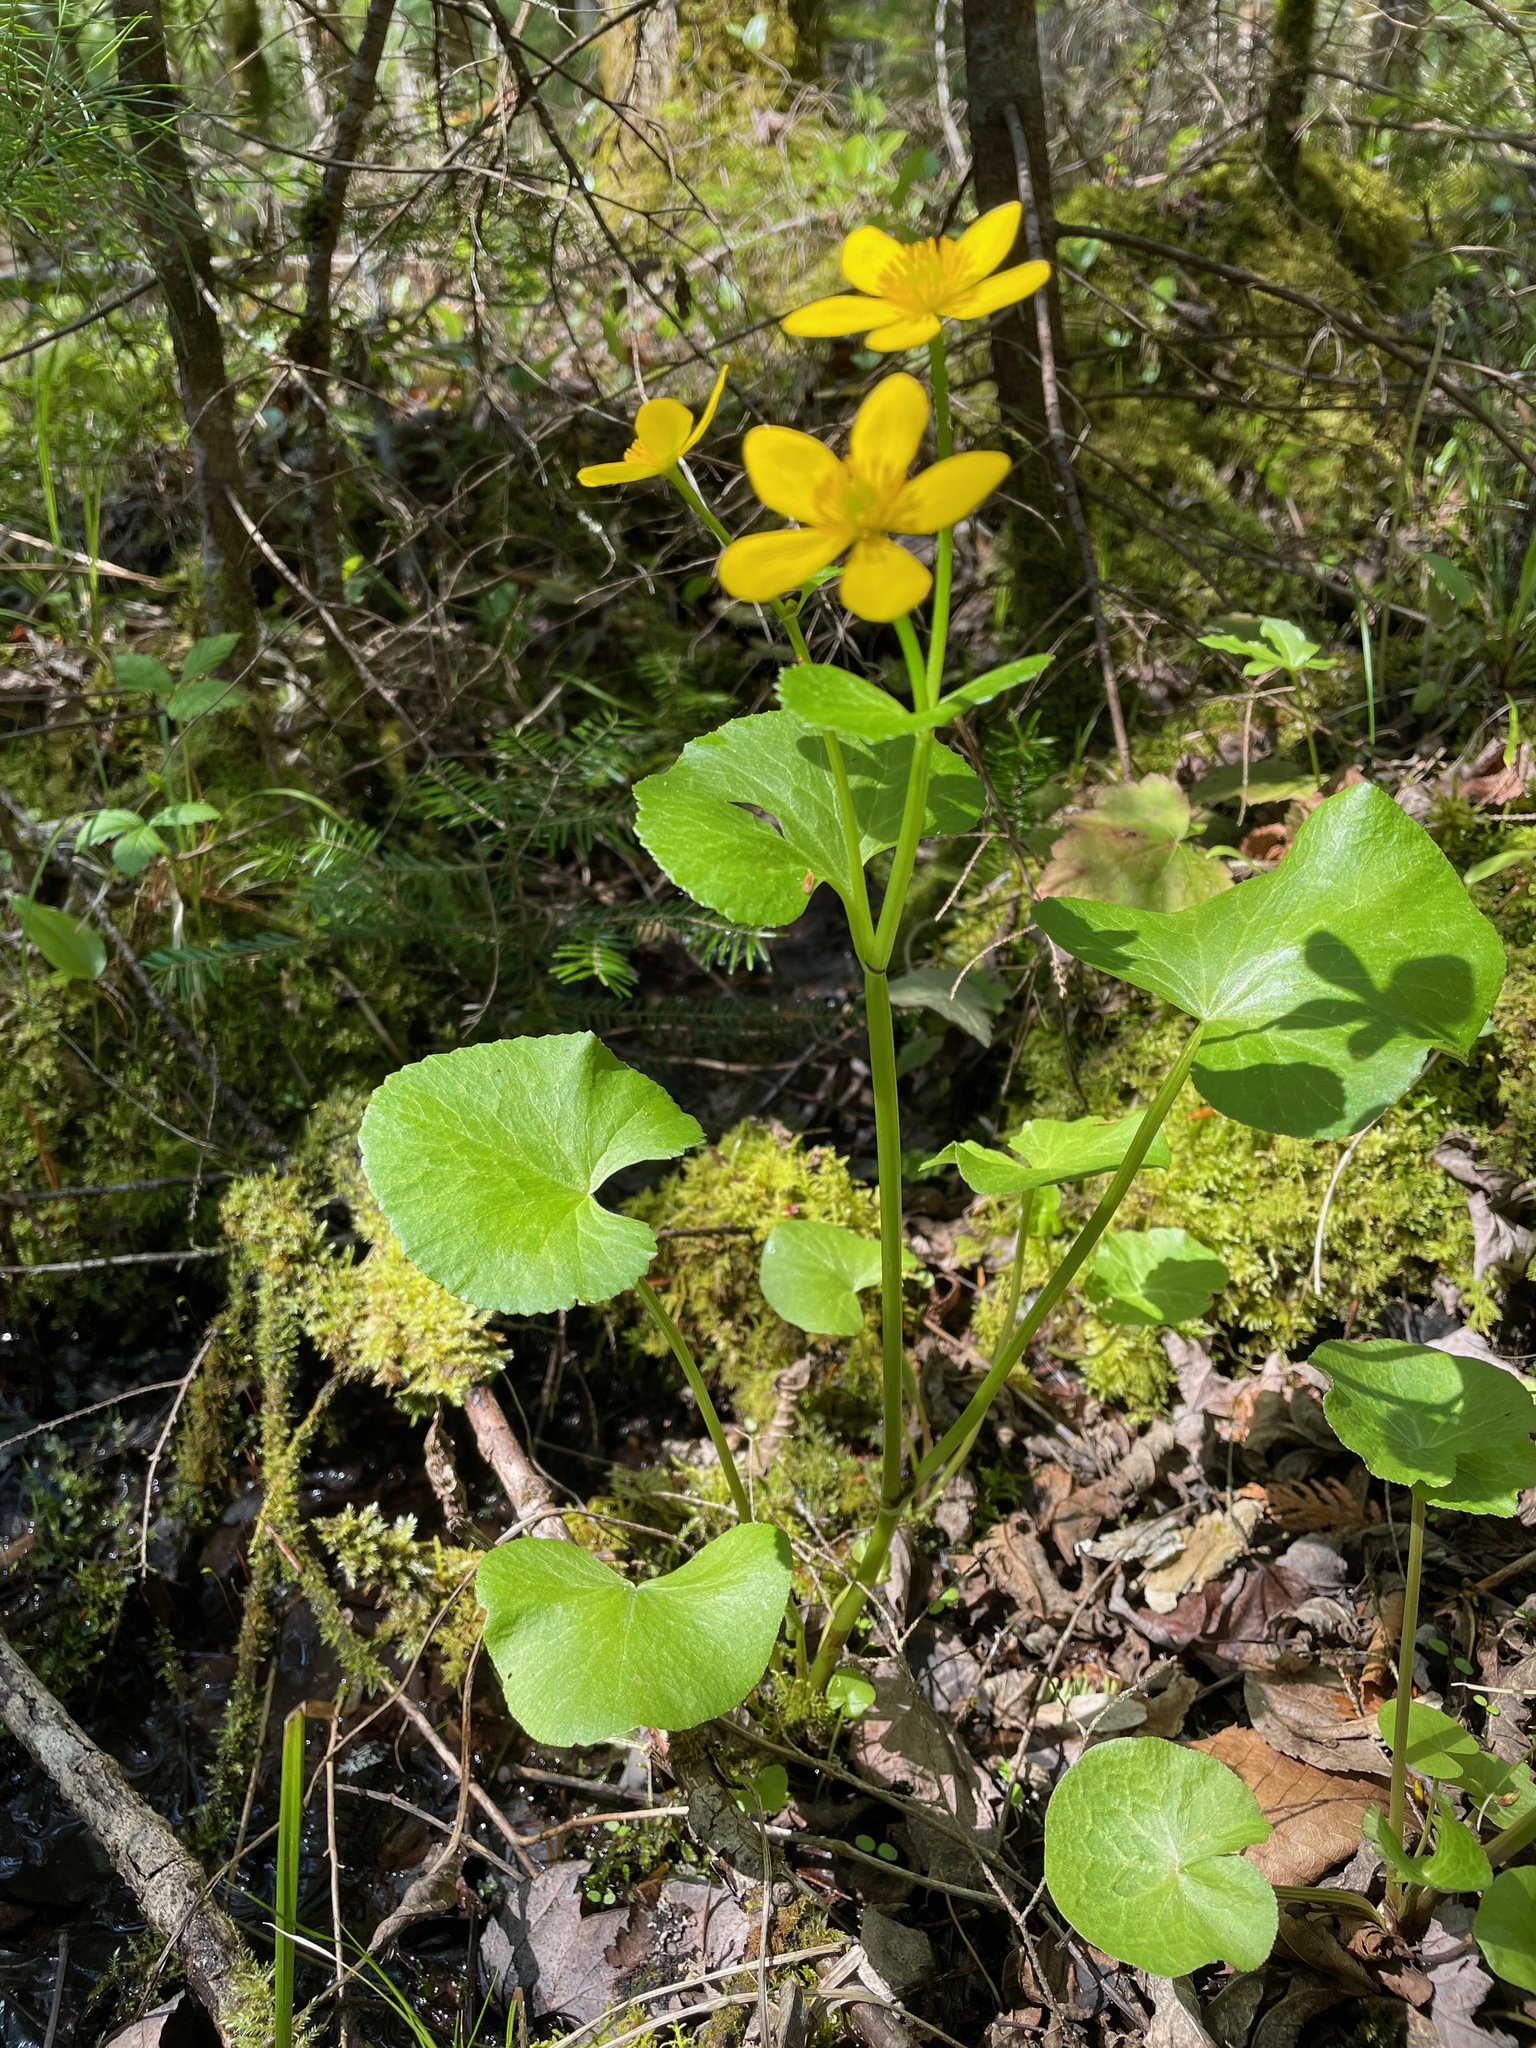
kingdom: Plantae
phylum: Tracheophyta
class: Magnoliopsida
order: Ranunculales
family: Ranunculaceae
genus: Caltha
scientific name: Caltha palustris
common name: Marsh marigold
